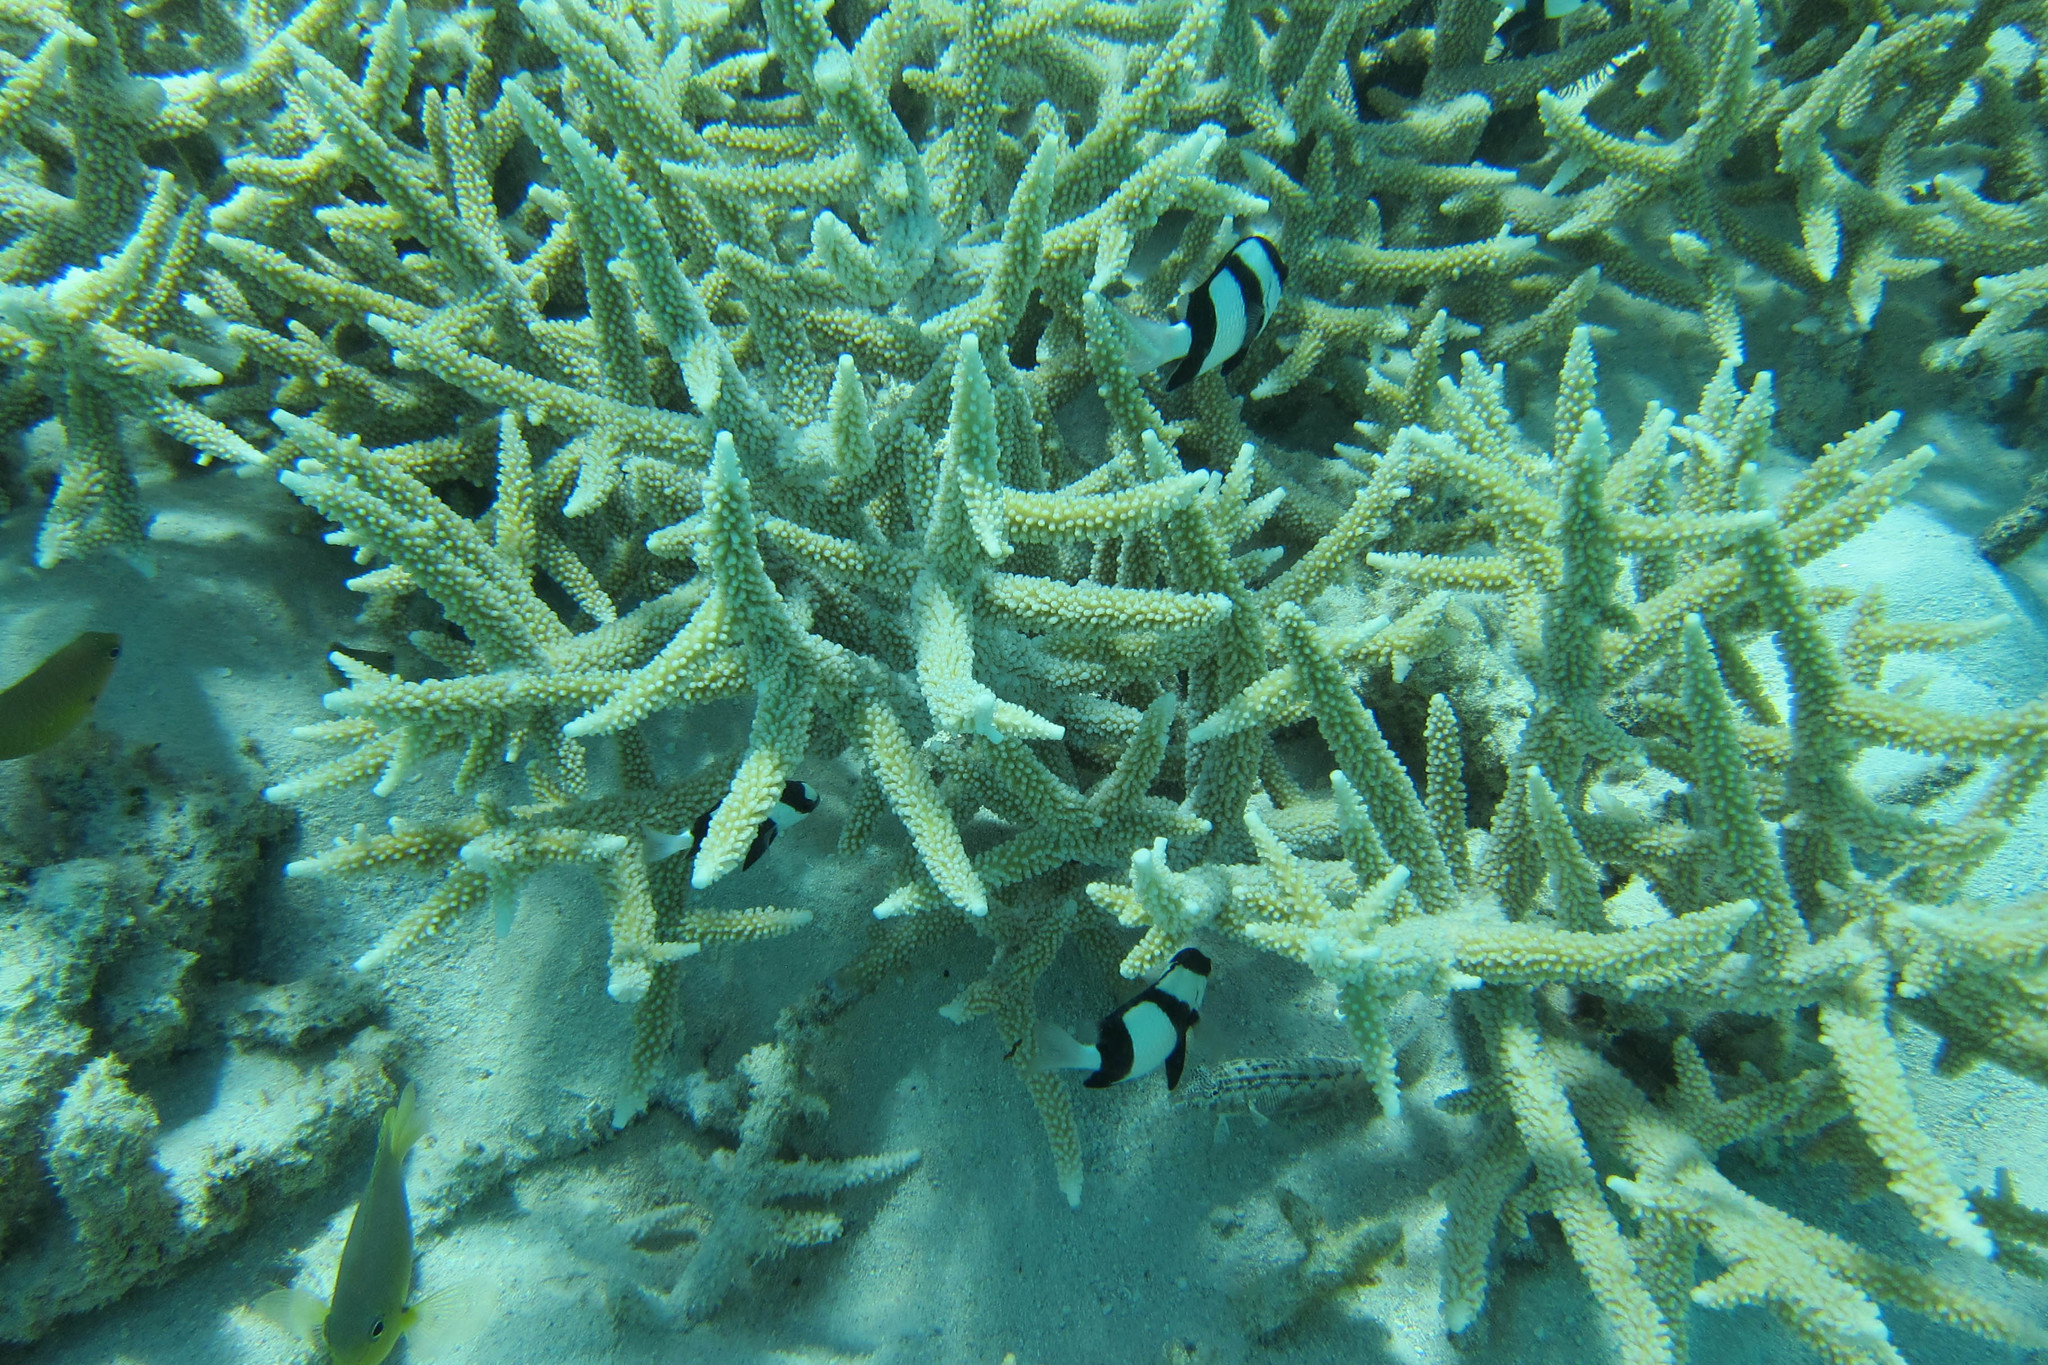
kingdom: Animalia
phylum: Chordata
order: Perciformes
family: Pinguipedidae
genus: Parapercis
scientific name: Parapercis australis
